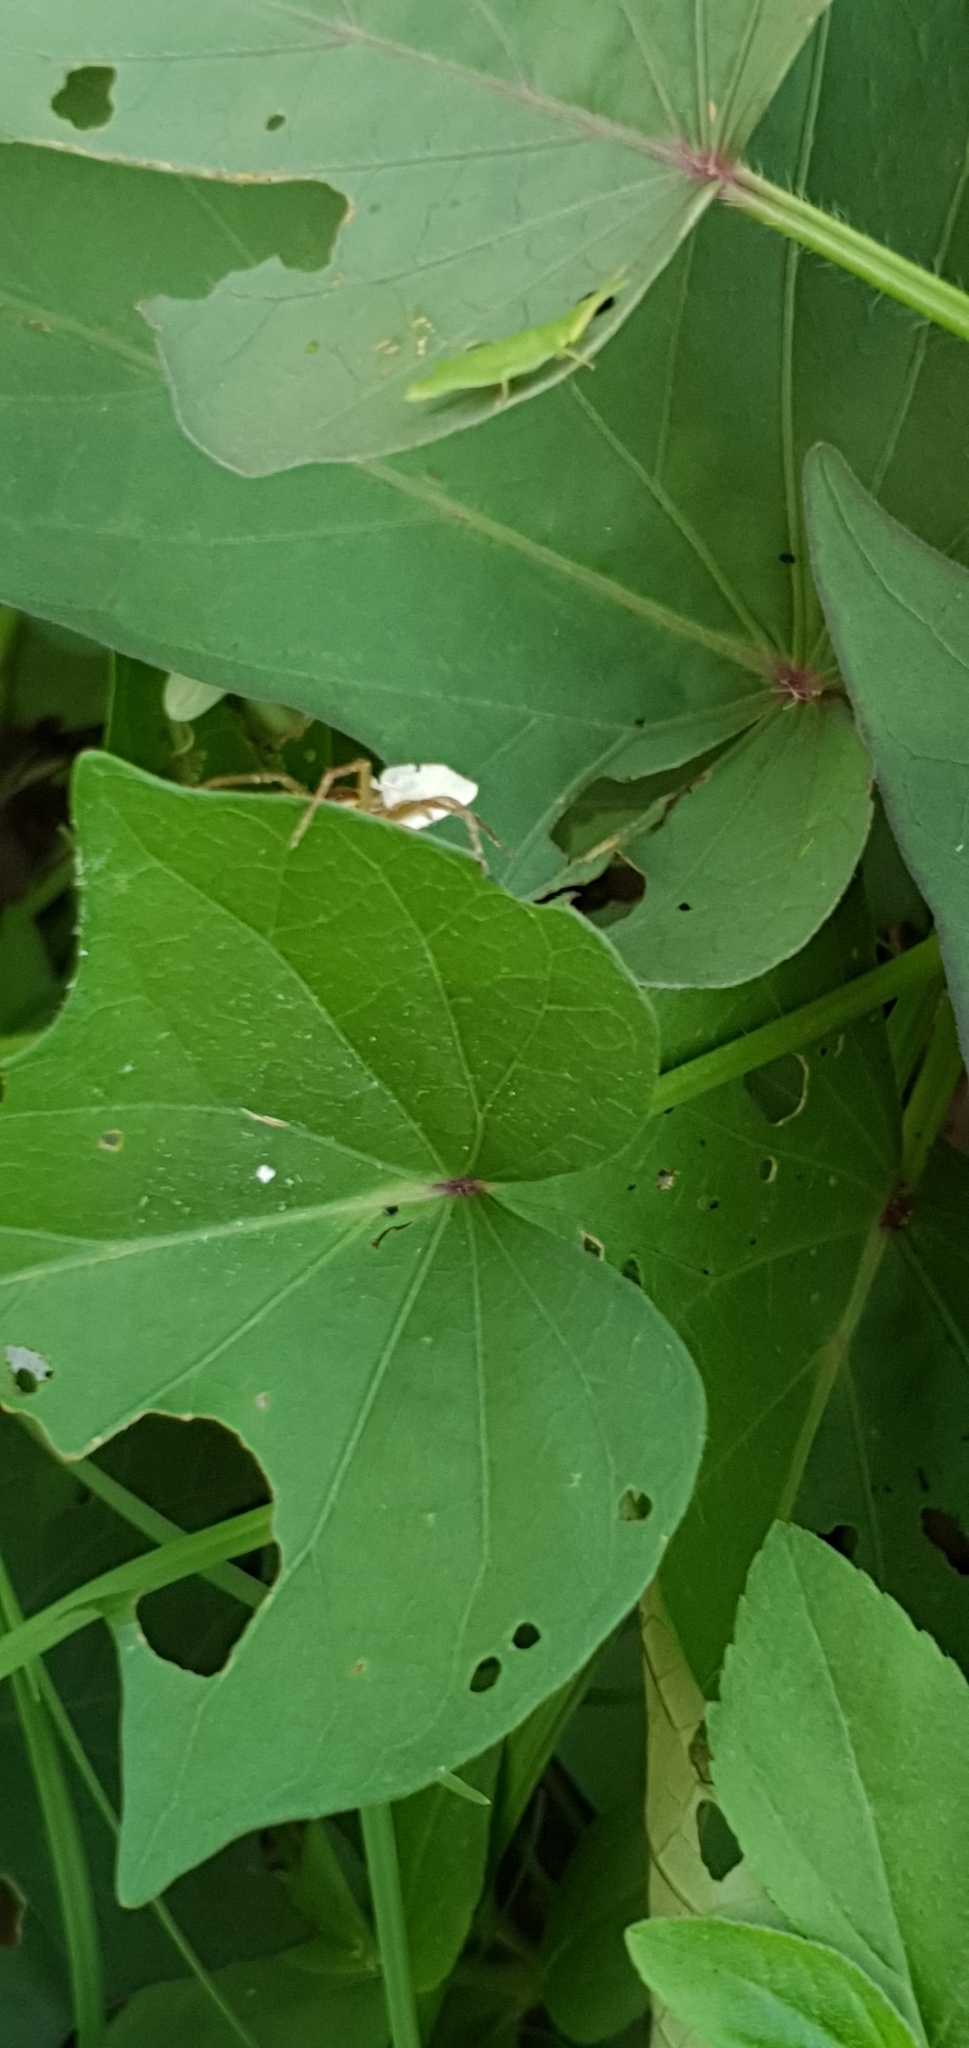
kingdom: Animalia
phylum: Arthropoda
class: Arachnida
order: Araneae
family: Pisauridae
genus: Dolomedes
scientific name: Dolomedes facetus
